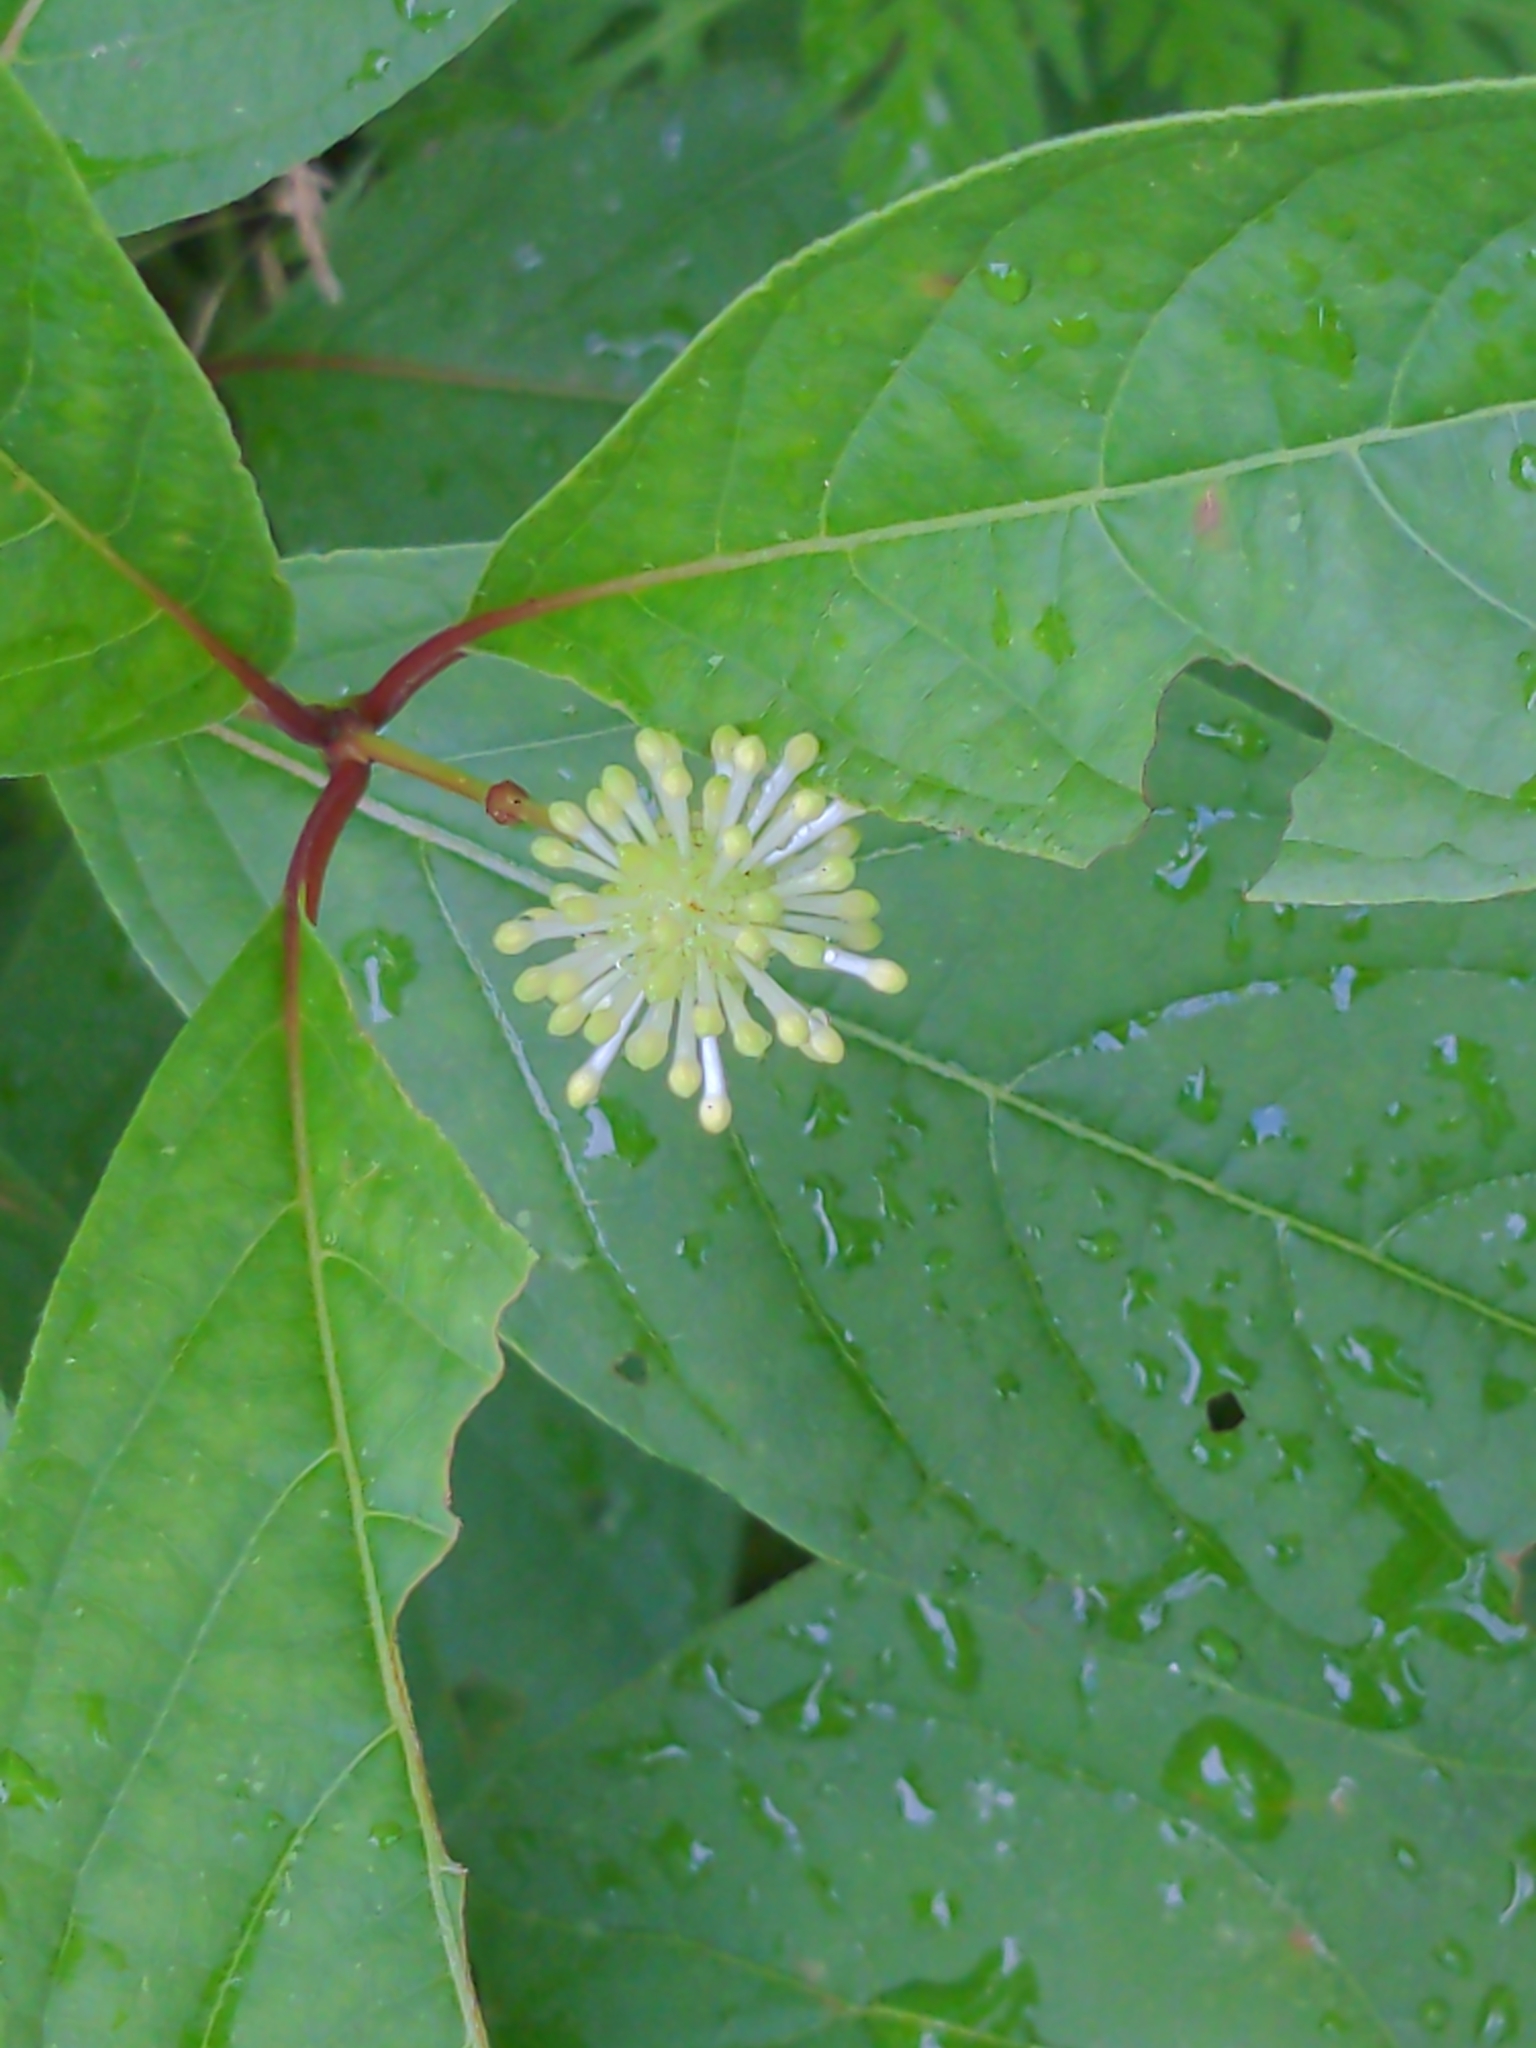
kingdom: Plantae
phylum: Tracheophyta
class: Magnoliopsida
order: Gentianales
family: Rubiaceae
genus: Cephalanthus
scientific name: Cephalanthus occidentalis
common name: Button-willow
